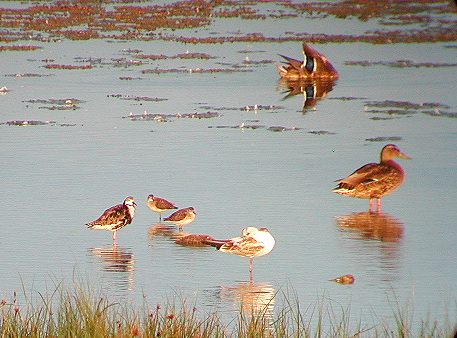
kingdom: Animalia
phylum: Chordata
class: Aves
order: Charadriiformes
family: Scolopacidae
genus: Calidris
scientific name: Calidris pugnax
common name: Ruff
